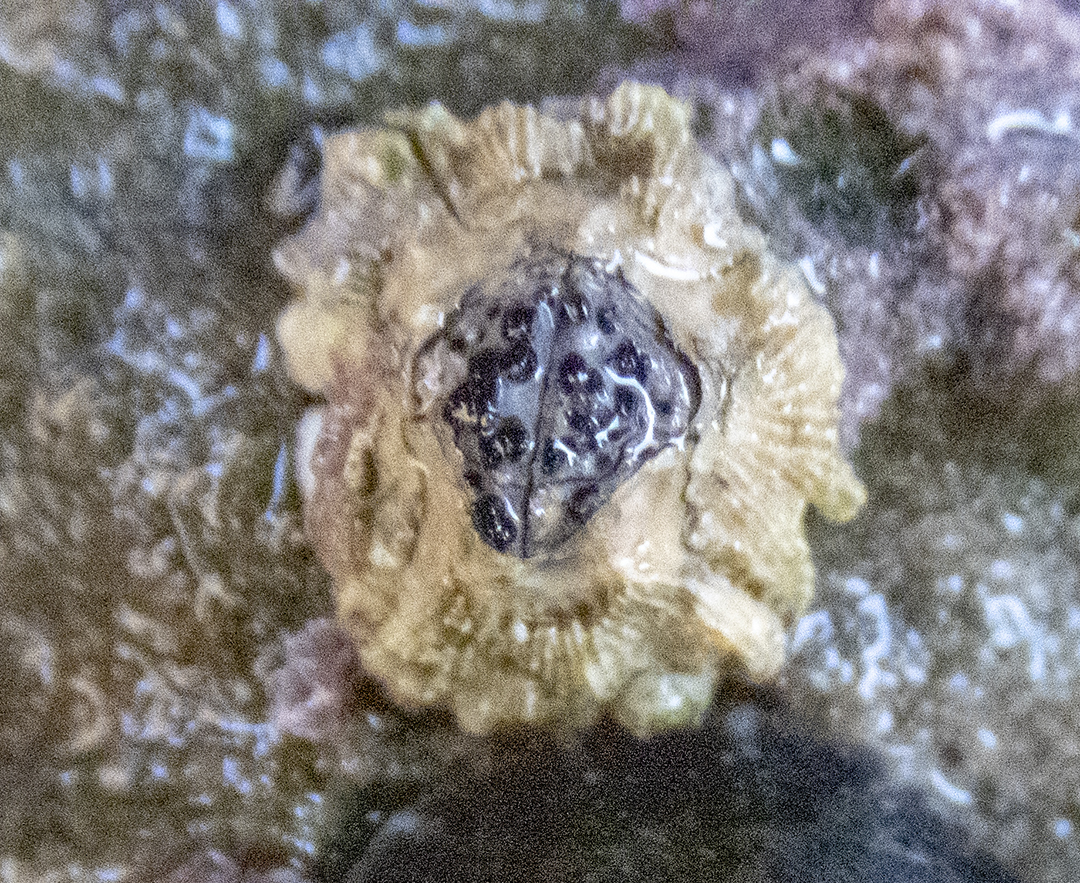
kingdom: Animalia
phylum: Arthropoda
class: Maxillopoda
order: Sessilia
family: Tetraclitidae
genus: Epopella
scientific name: Epopella plicata
